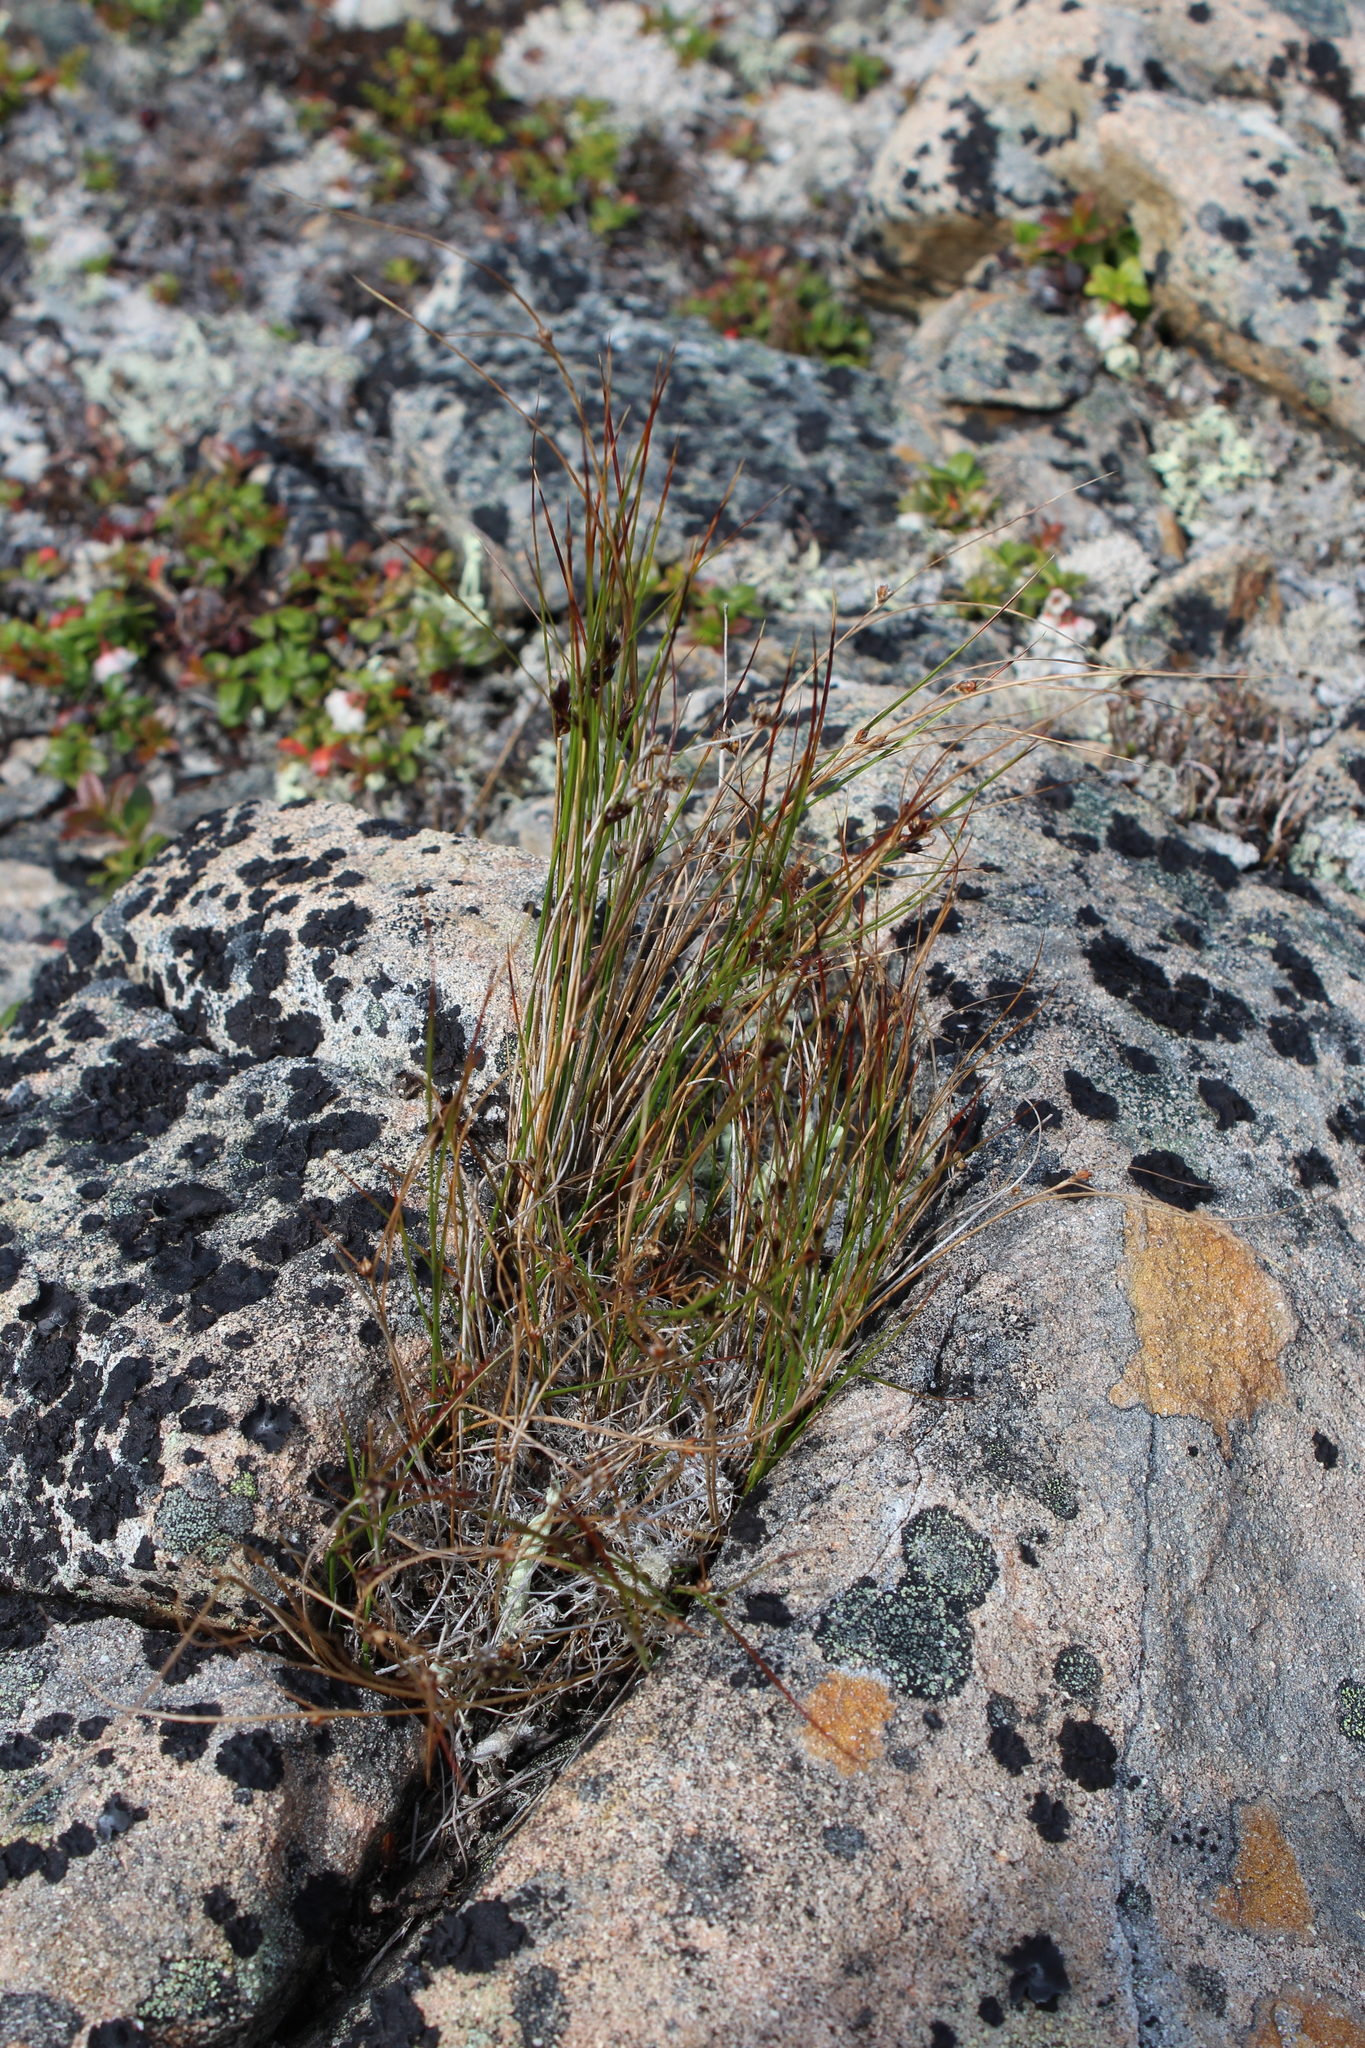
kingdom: Plantae
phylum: Tracheophyta
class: Liliopsida
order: Poales
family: Juncaceae
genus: Oreojuncus
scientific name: Oreojuncus trifidus
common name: Highland rush
